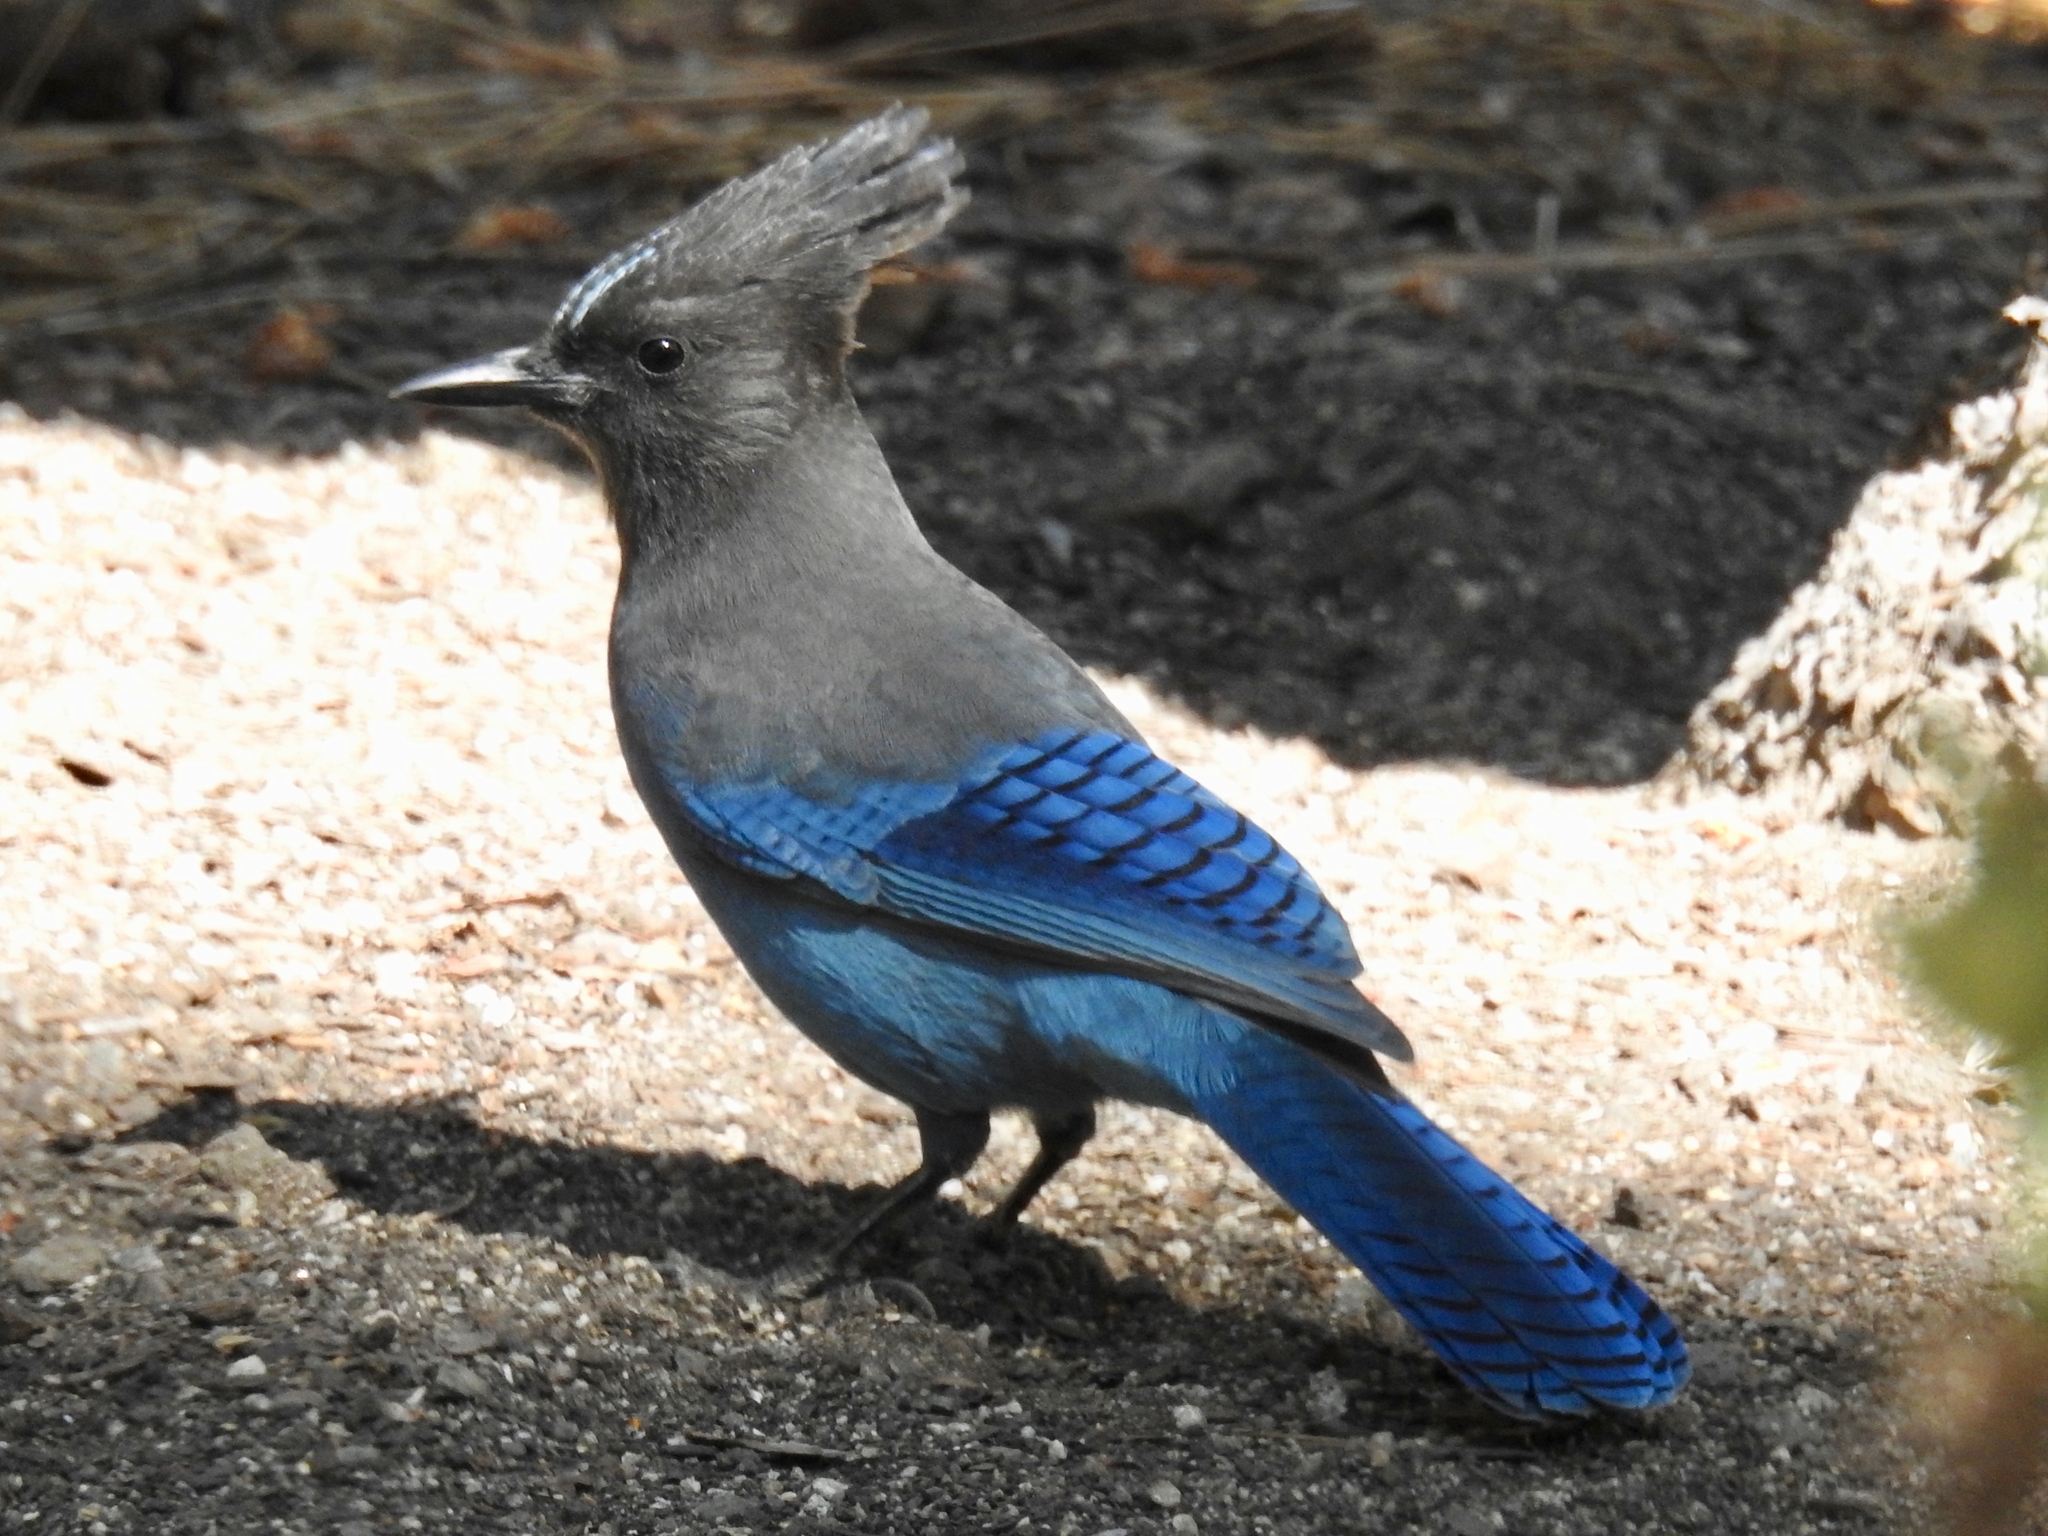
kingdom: Animalia
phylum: Chordata
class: Aves
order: Passeriformes
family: Corvidae
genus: Cyanocitta
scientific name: Cyanocitta stelleri
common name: Steller's jay
